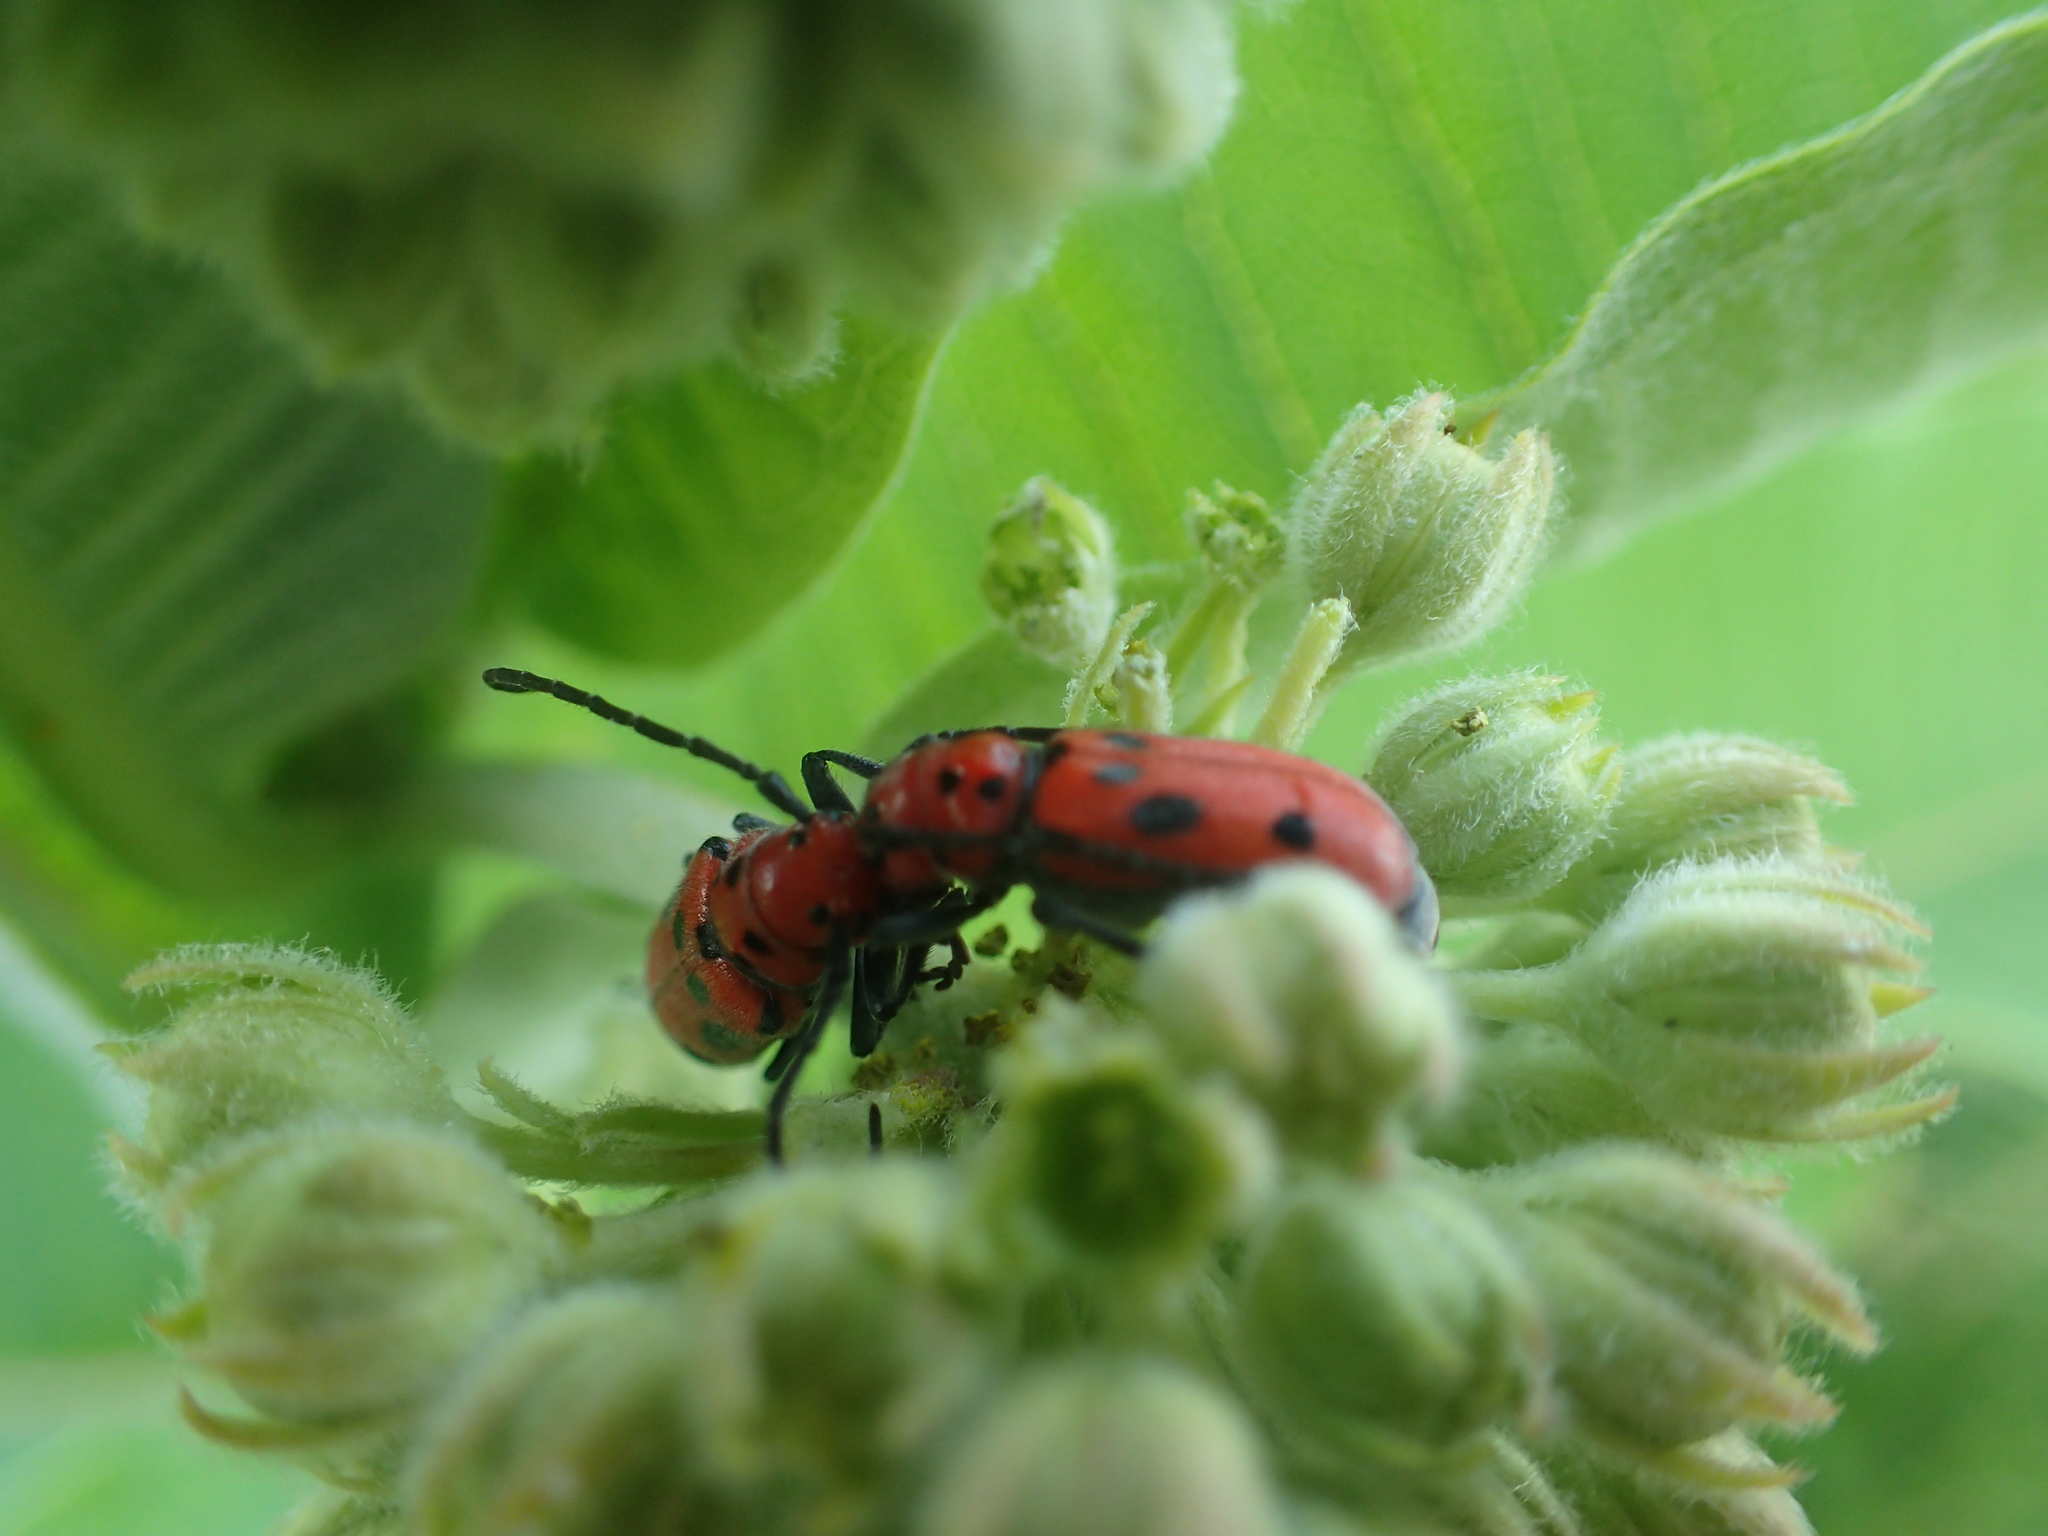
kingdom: Animalia
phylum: Arthropoda
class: Insecta
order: Coleoptera
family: Cerambycidae
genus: Tetraopes
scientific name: Tetraopes tetrophthalmus
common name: Red milkweed beetle
